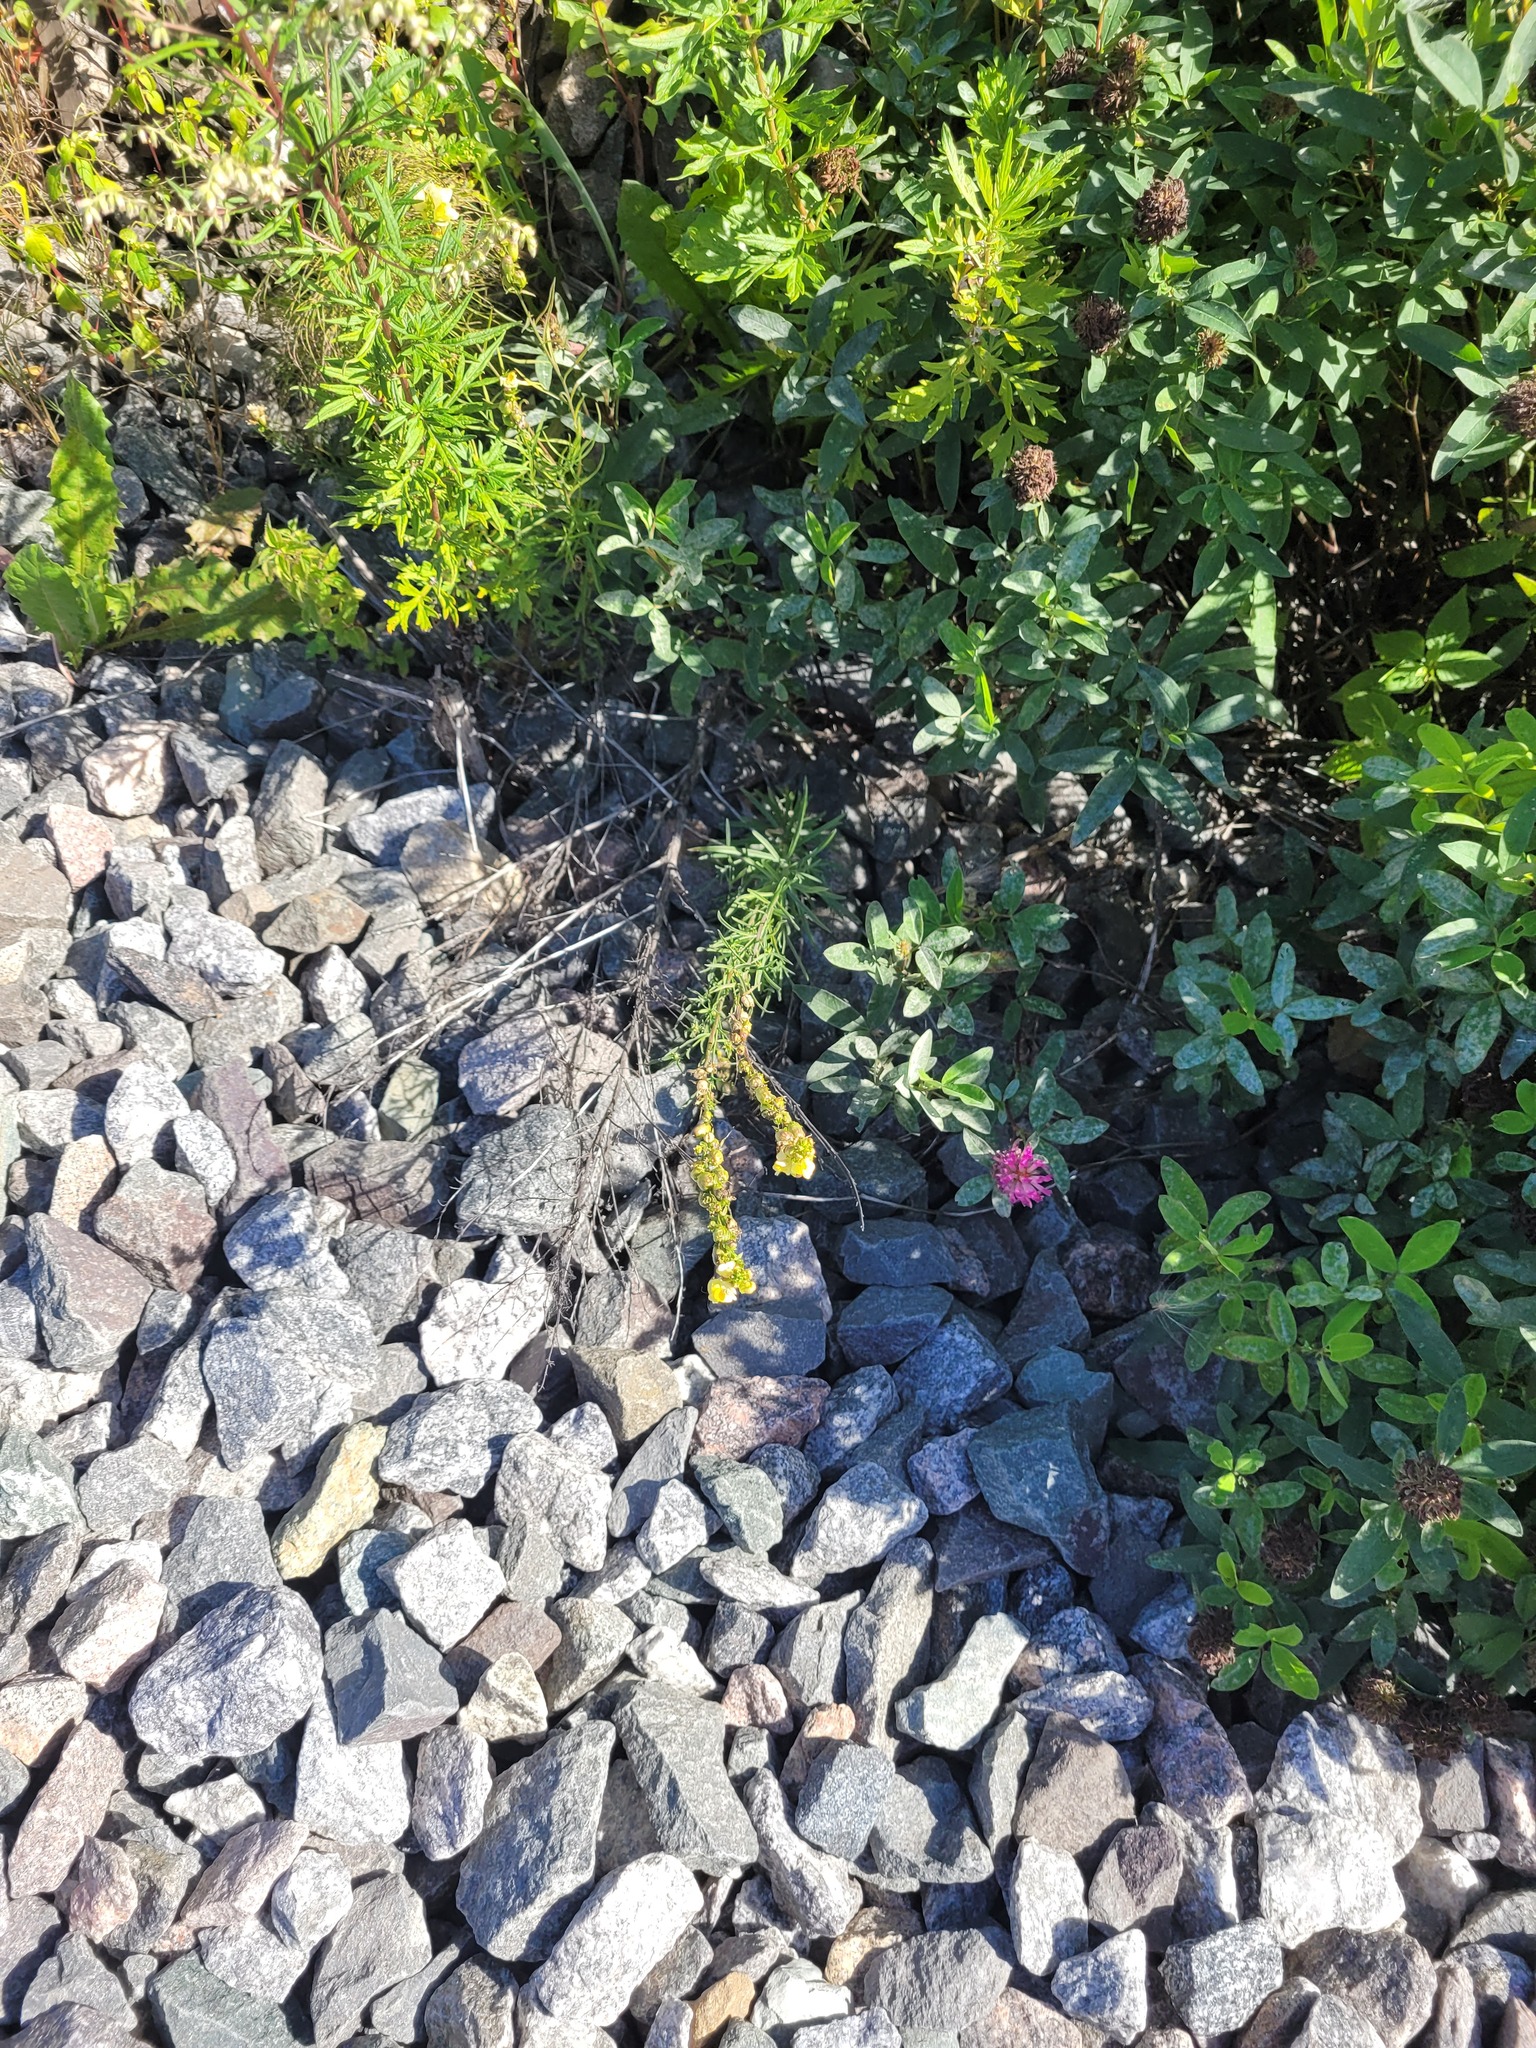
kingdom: Plantae
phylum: Tracheophyta
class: Magnoliopsida
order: Lamiales
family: Plantaginaceae
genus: Linaria
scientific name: Linaria vulgaris
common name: Butter and eggs
